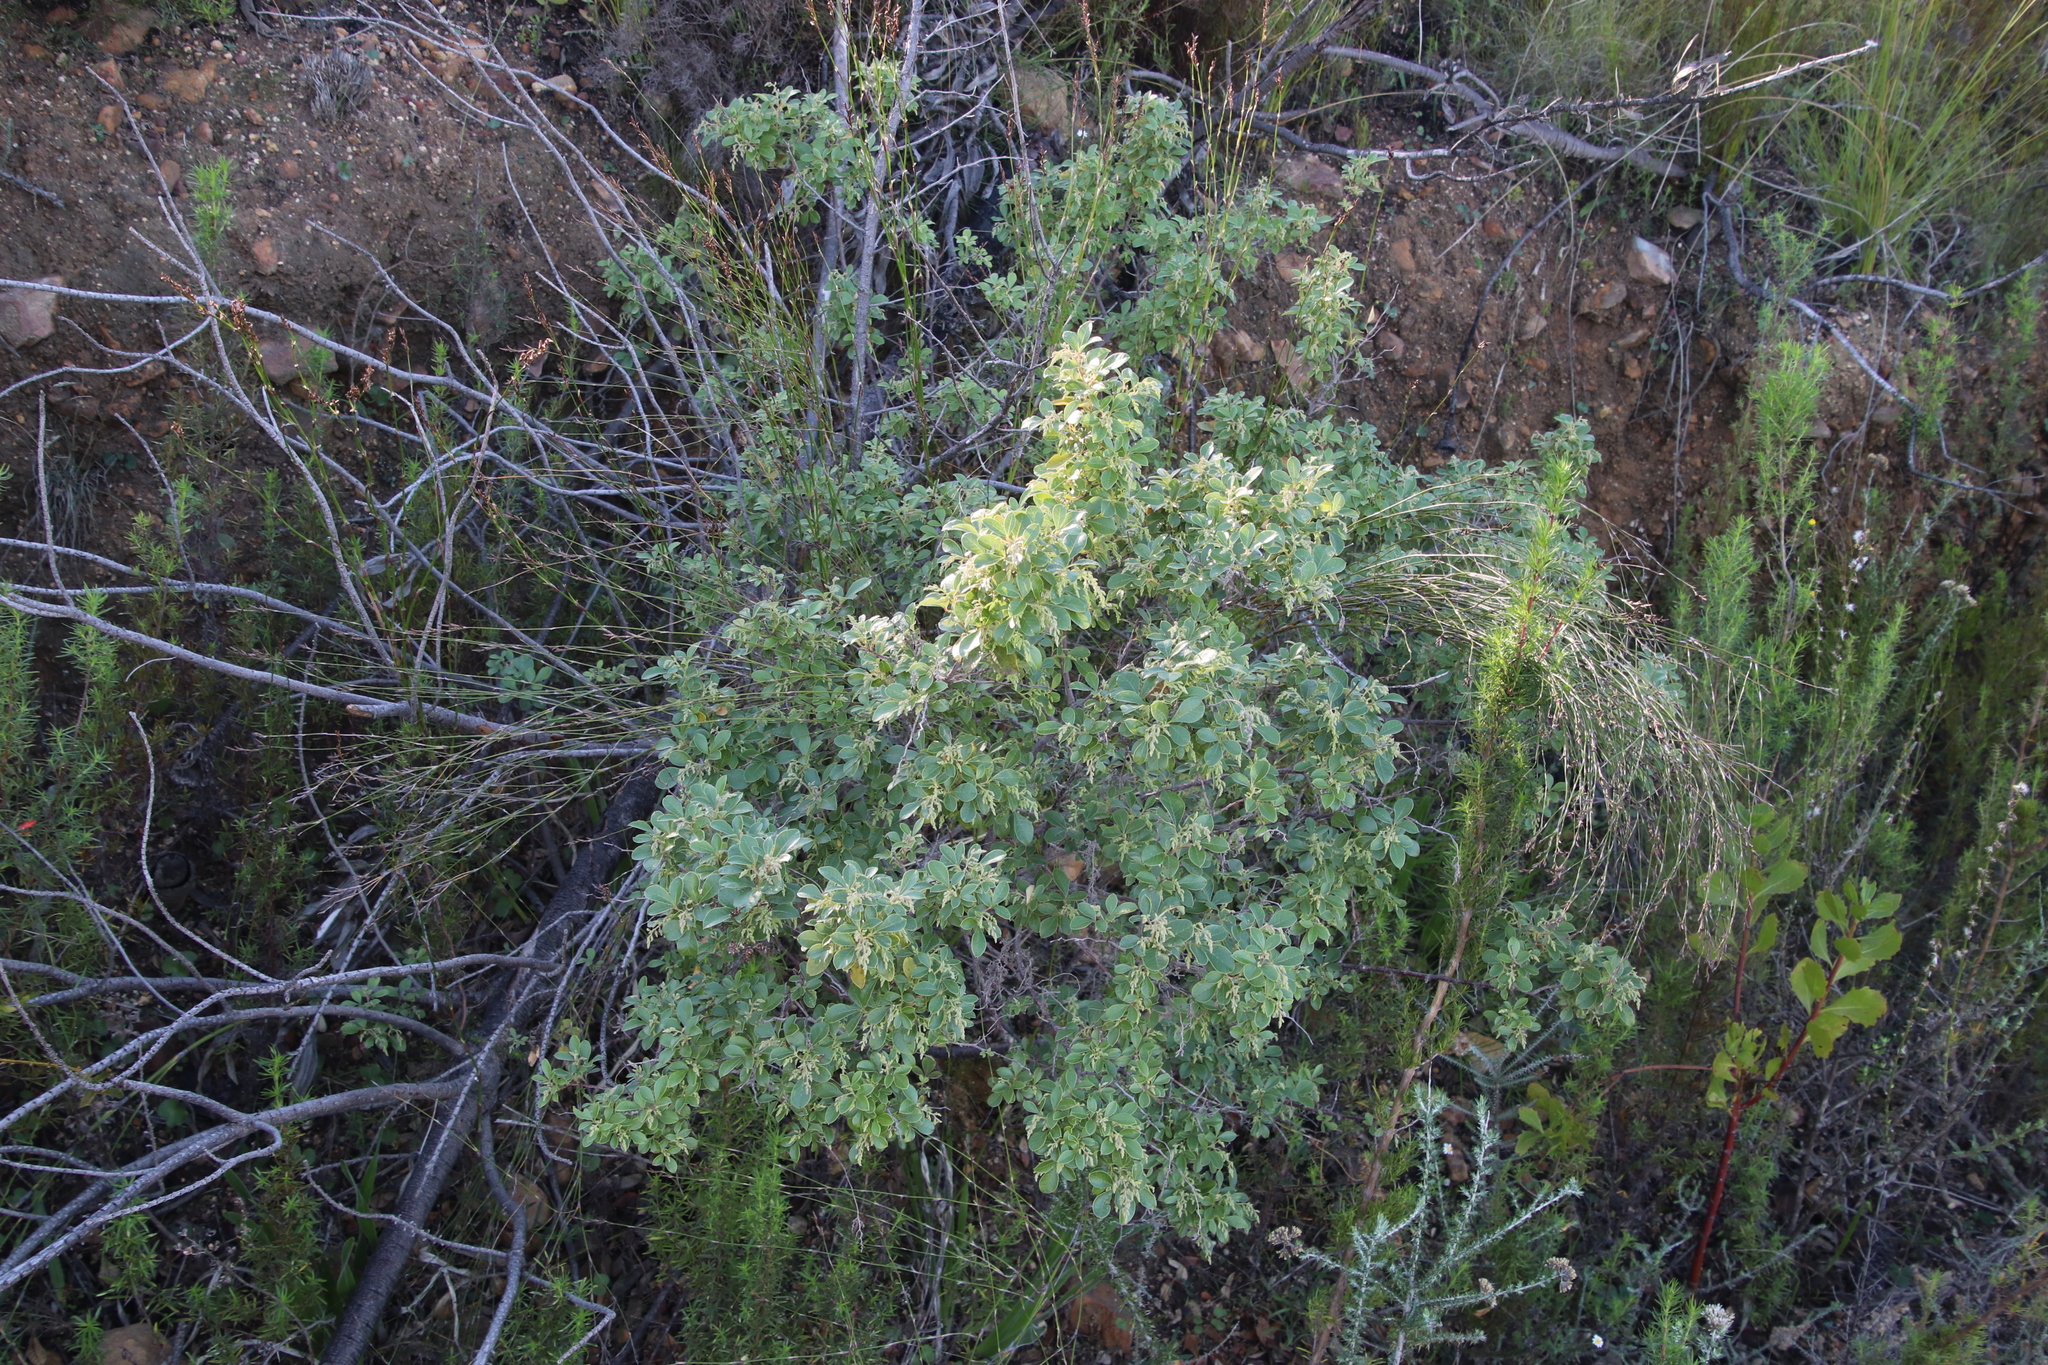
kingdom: Plantae
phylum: Tracheophyta
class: Magnoliopsida
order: Sapindales
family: Anacardiaceae
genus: Searsia
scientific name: Searsia tomentosa
